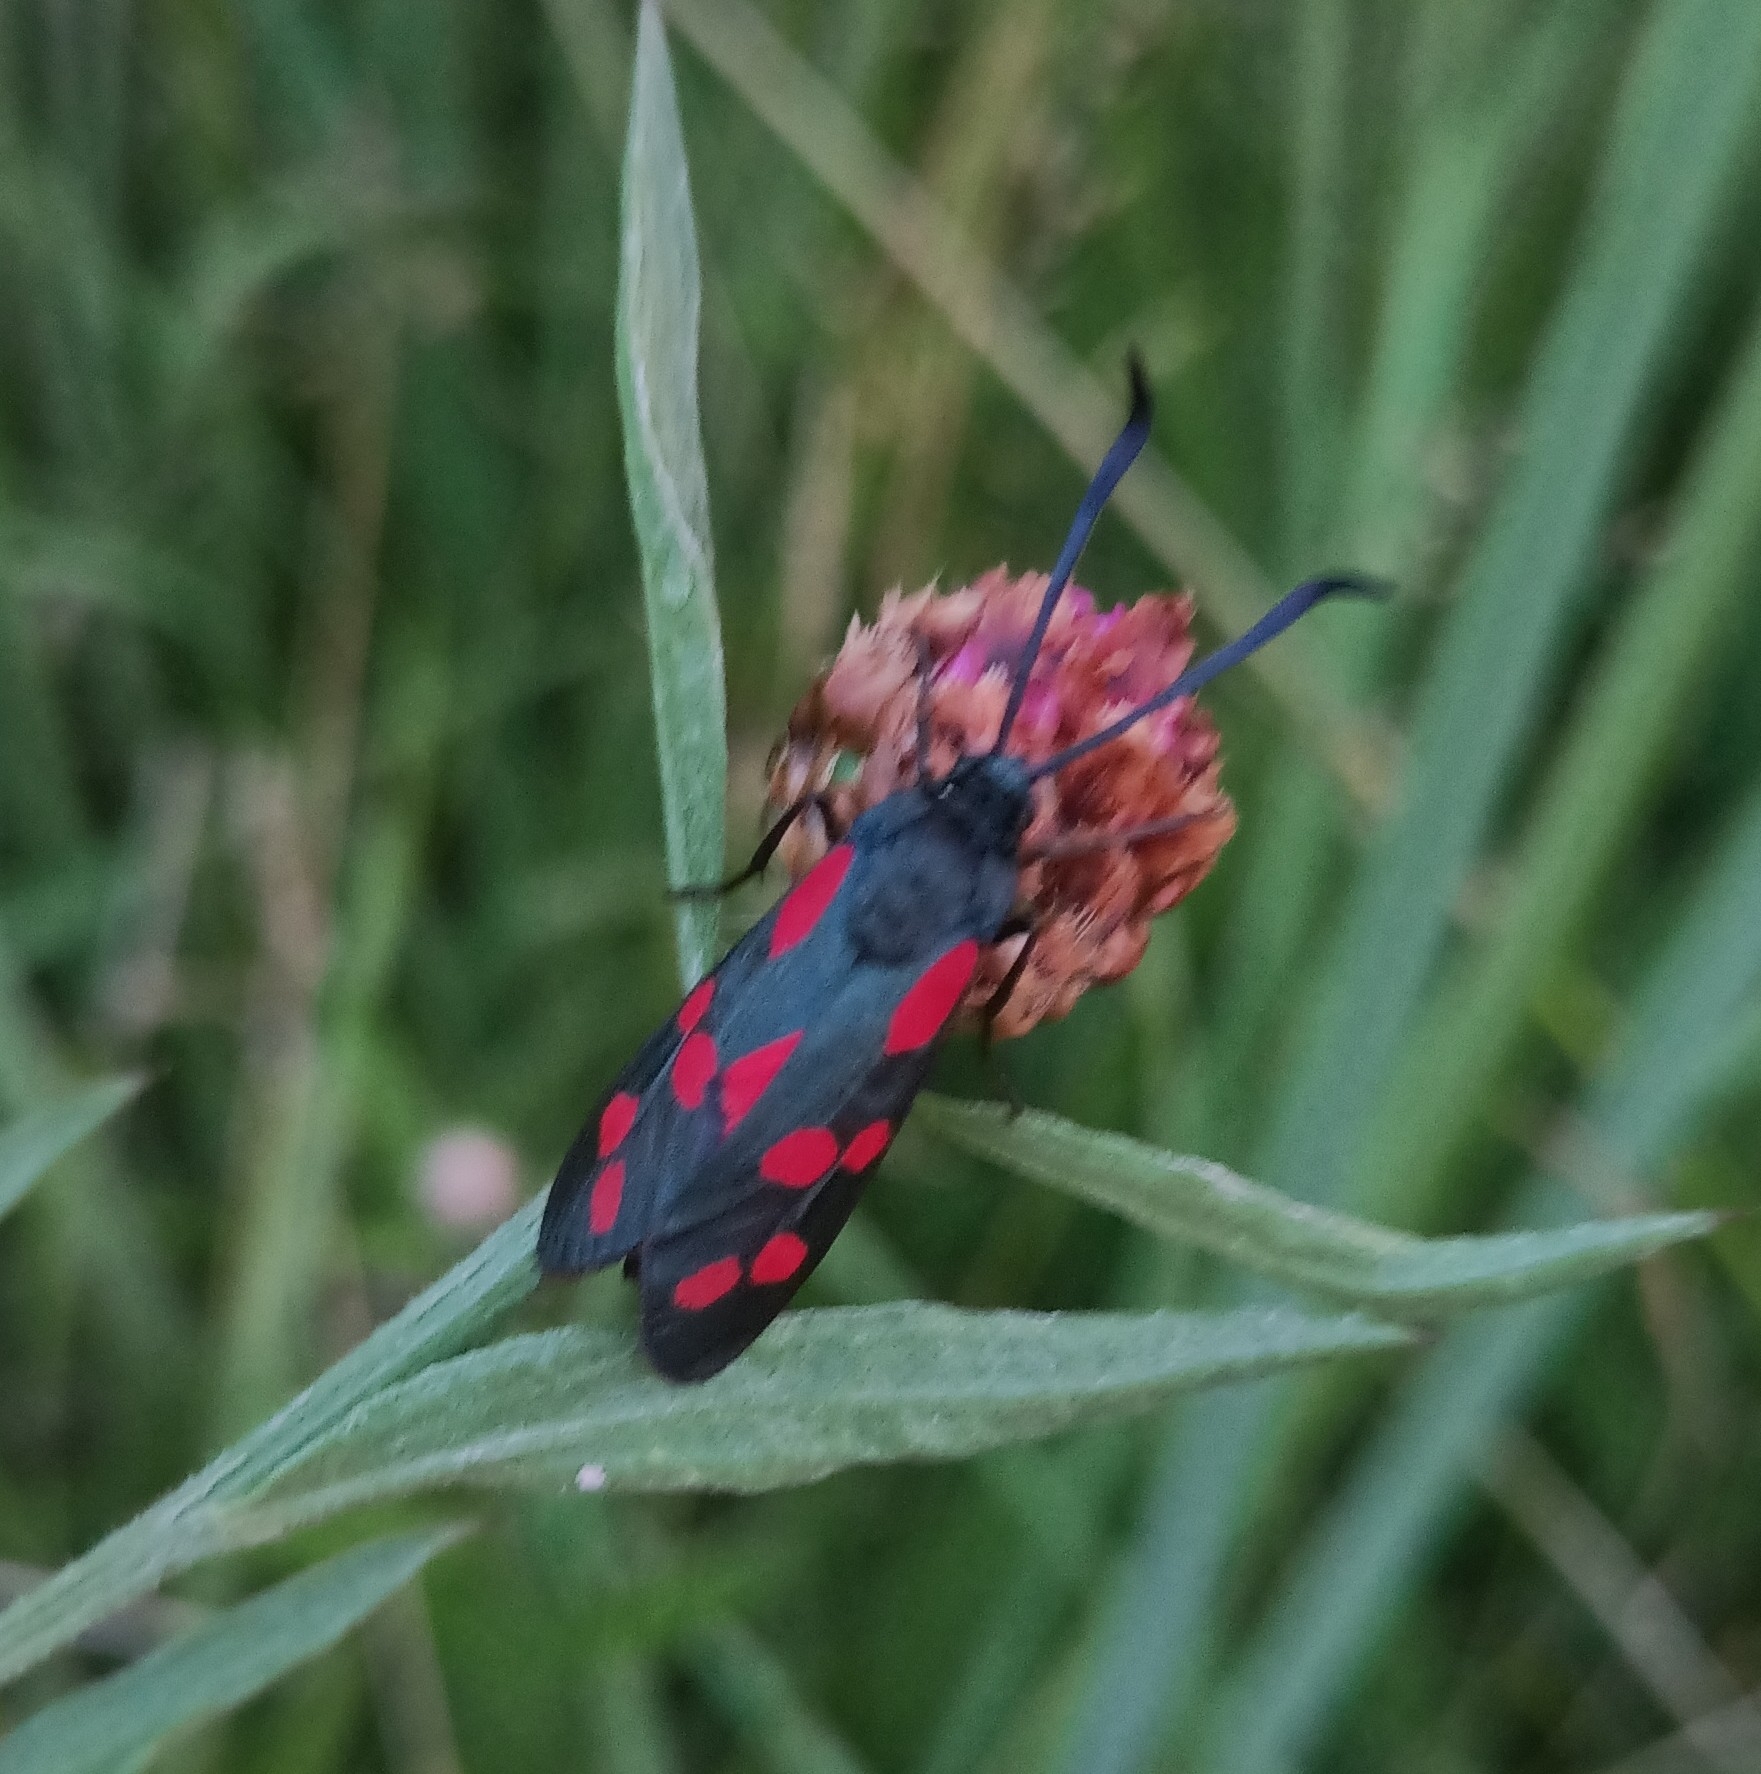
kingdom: Animalia
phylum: Arthropoda
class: Insecta
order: Lepidoptera
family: Zygaenidae
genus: Zygaena
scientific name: Zygaena filipendulae
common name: Six-spot burnet
